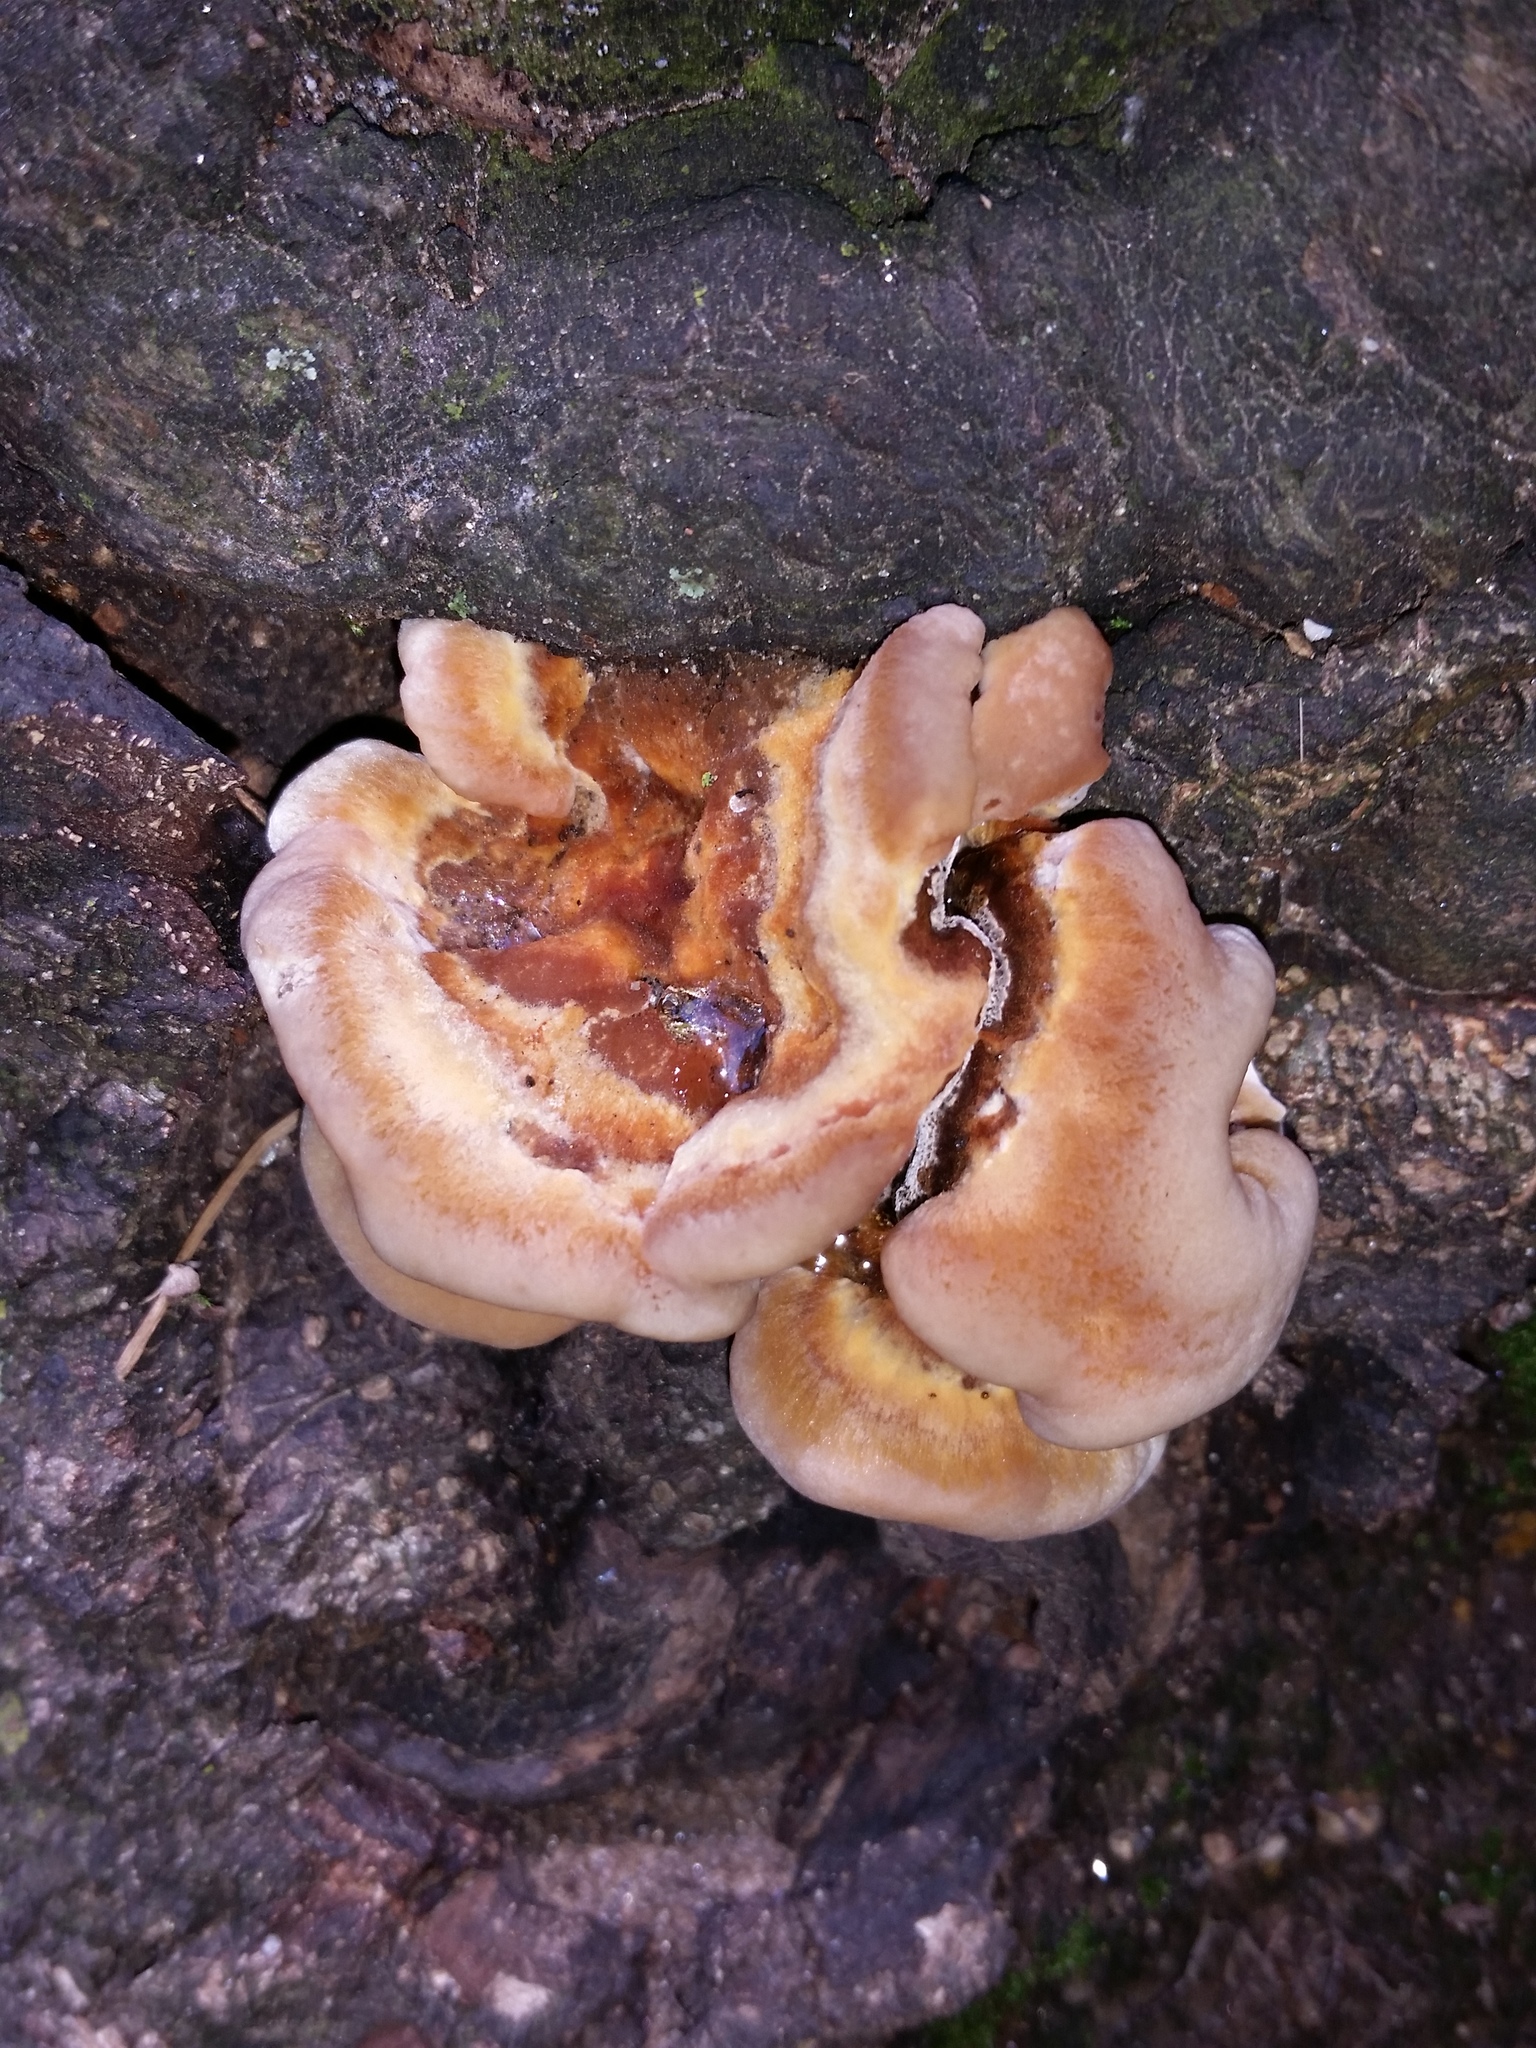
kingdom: Fungi
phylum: Basidiomycota
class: Agaricomycetes
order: Hymenochaetales
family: Hymenochaetaceae
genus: Inonotus
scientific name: Inonotus hispidus
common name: Shaggy bracket
